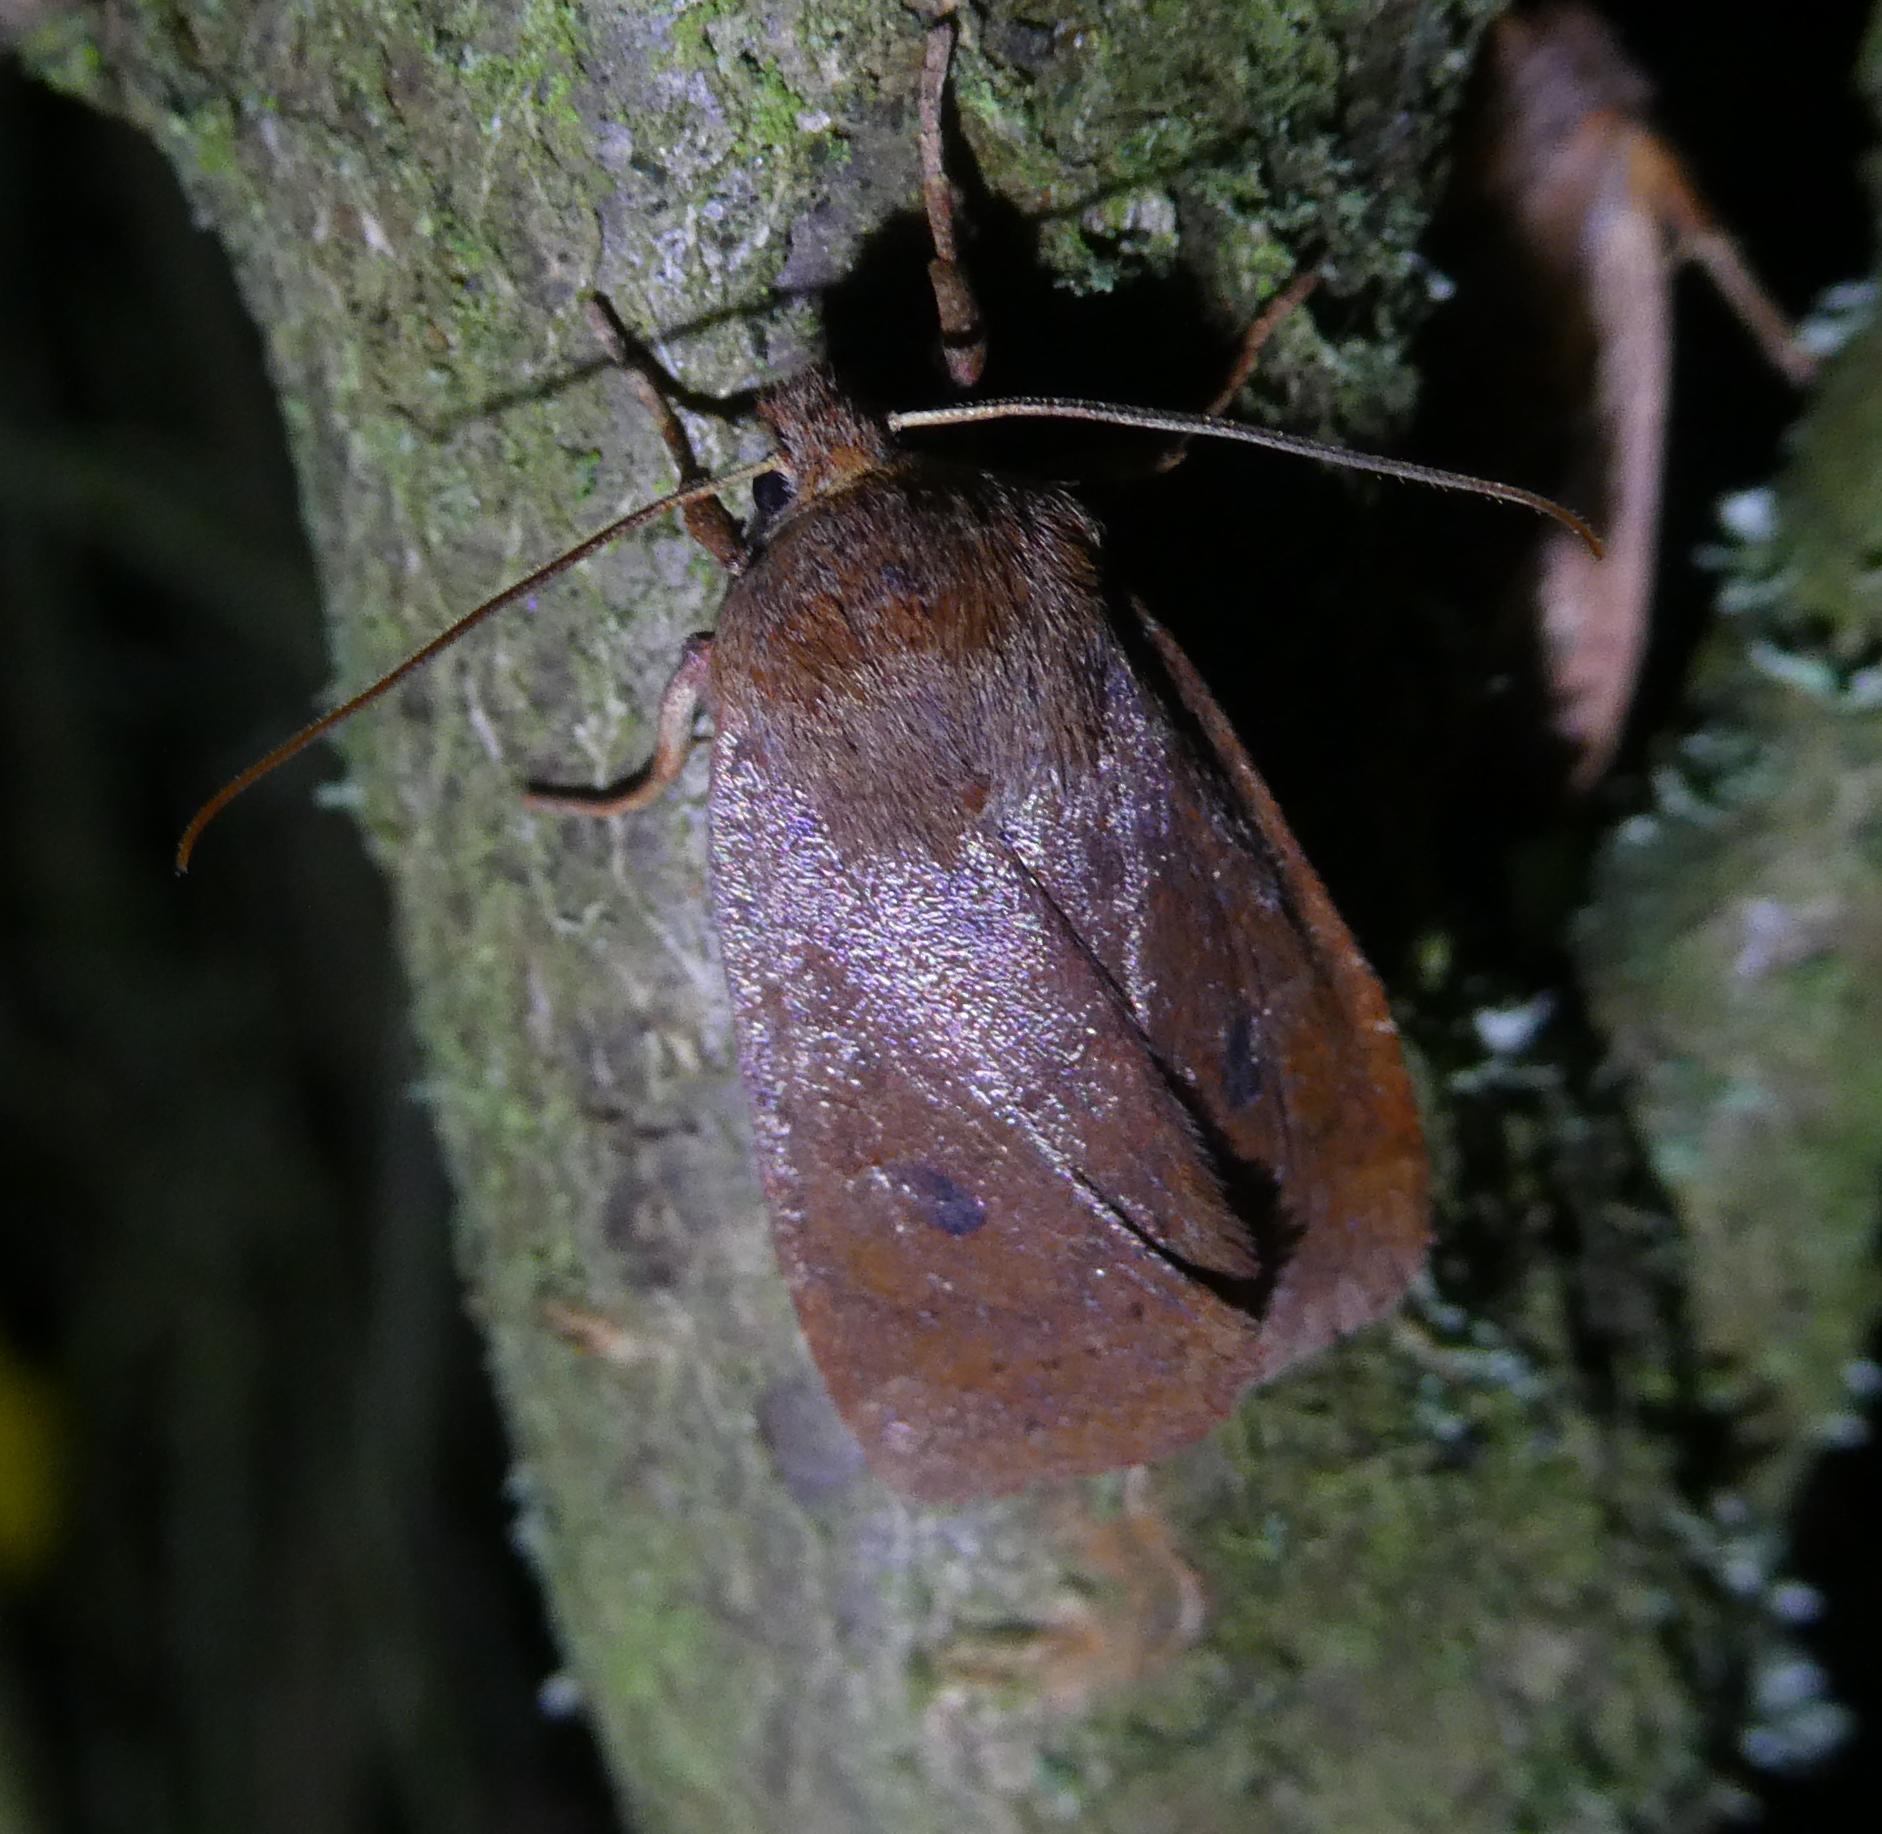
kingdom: Animalia
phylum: Arthropoda
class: Insecta
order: Lepidoptera
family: Noctuidae
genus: Conistra
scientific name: Conistra vaccinii
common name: Chestnut
